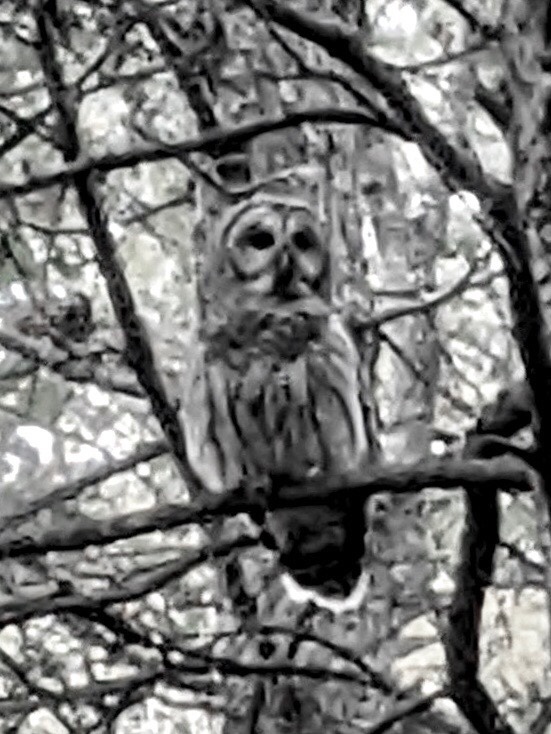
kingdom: Animalia
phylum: Chordata
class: Aves
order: Strigiformes
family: Strigidae
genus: Strix
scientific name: Strix varia
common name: Barred owl
